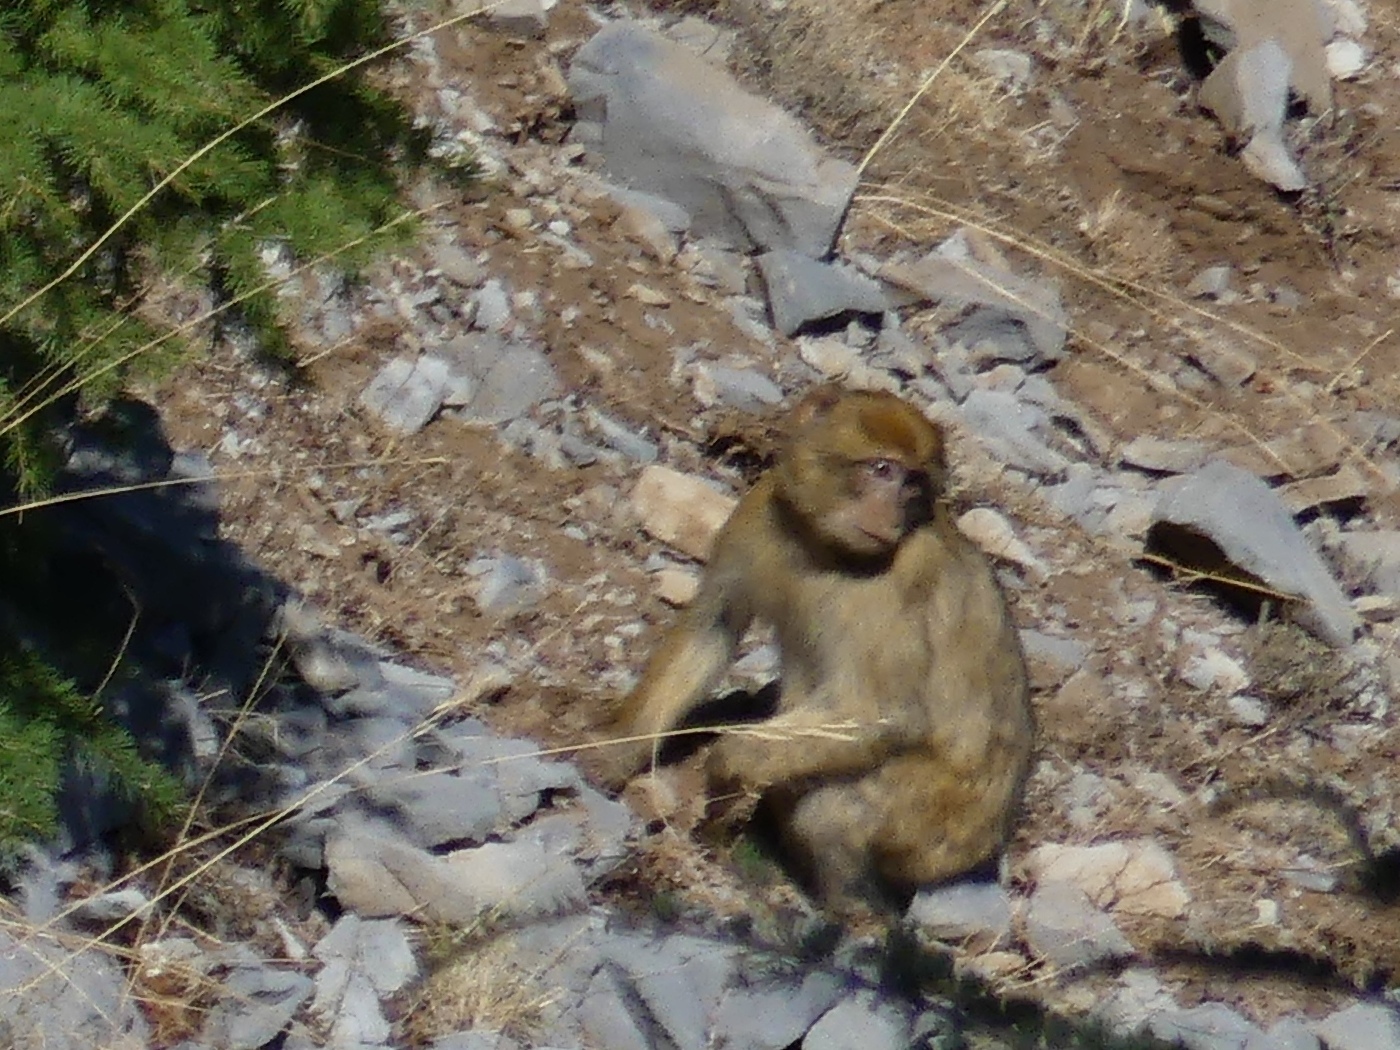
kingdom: Animalia
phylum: Chordata
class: Mammalia
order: Primates
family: Cercopithecidae
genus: Macaca
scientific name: Macaca sylvanus
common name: Barbary macaque
